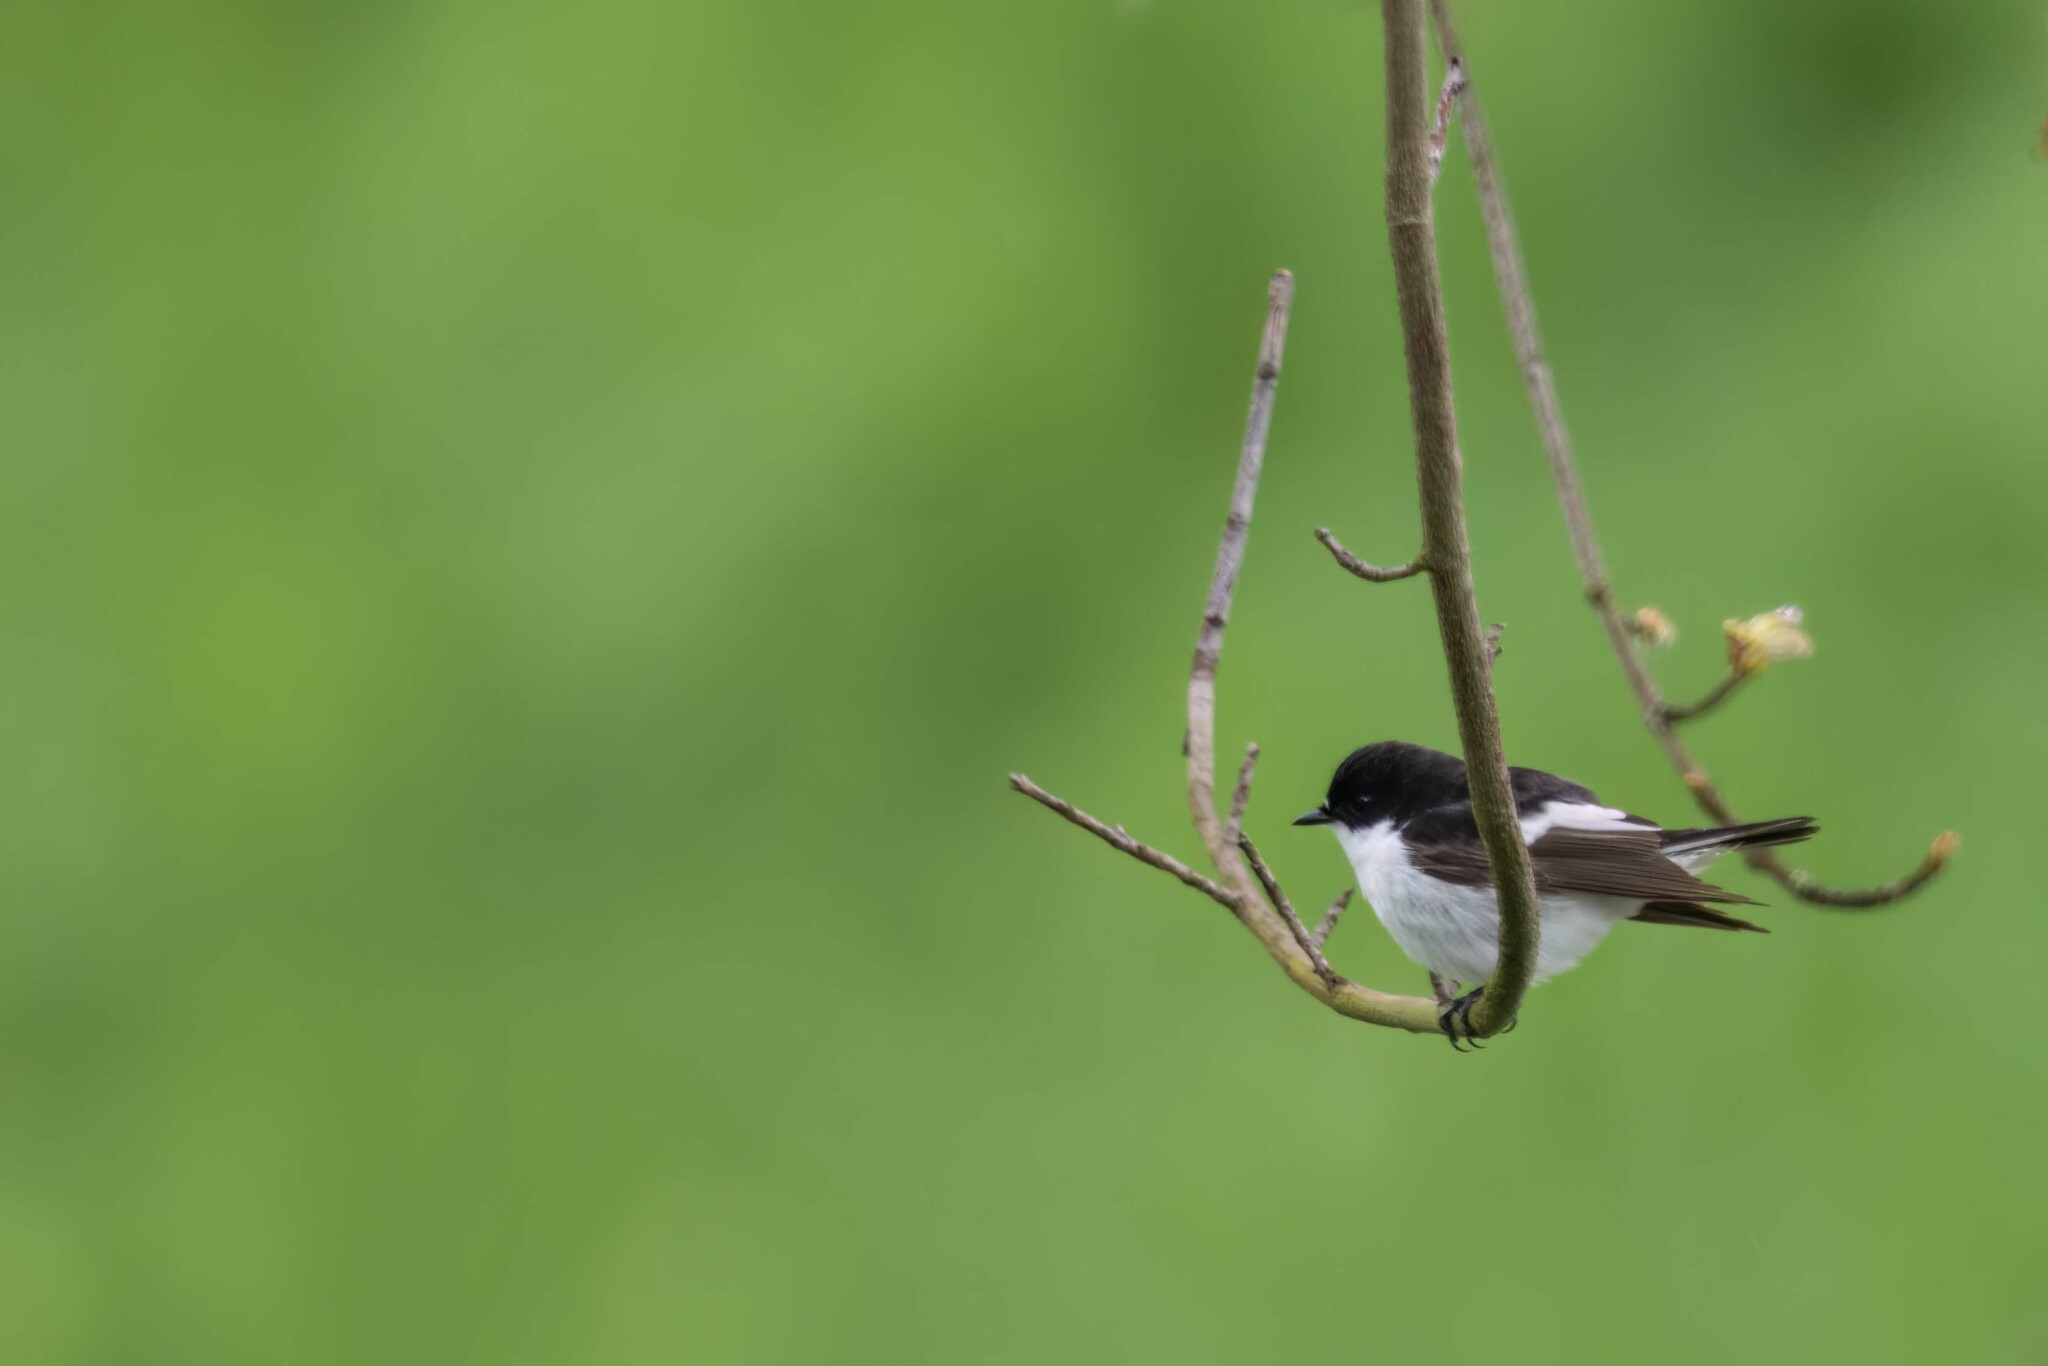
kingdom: Animalia
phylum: Chordata
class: Aves
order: Passeriformes
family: Muscicapidae
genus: Ficedula
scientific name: Ficedula hypoleuca
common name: European pied flycatcher
